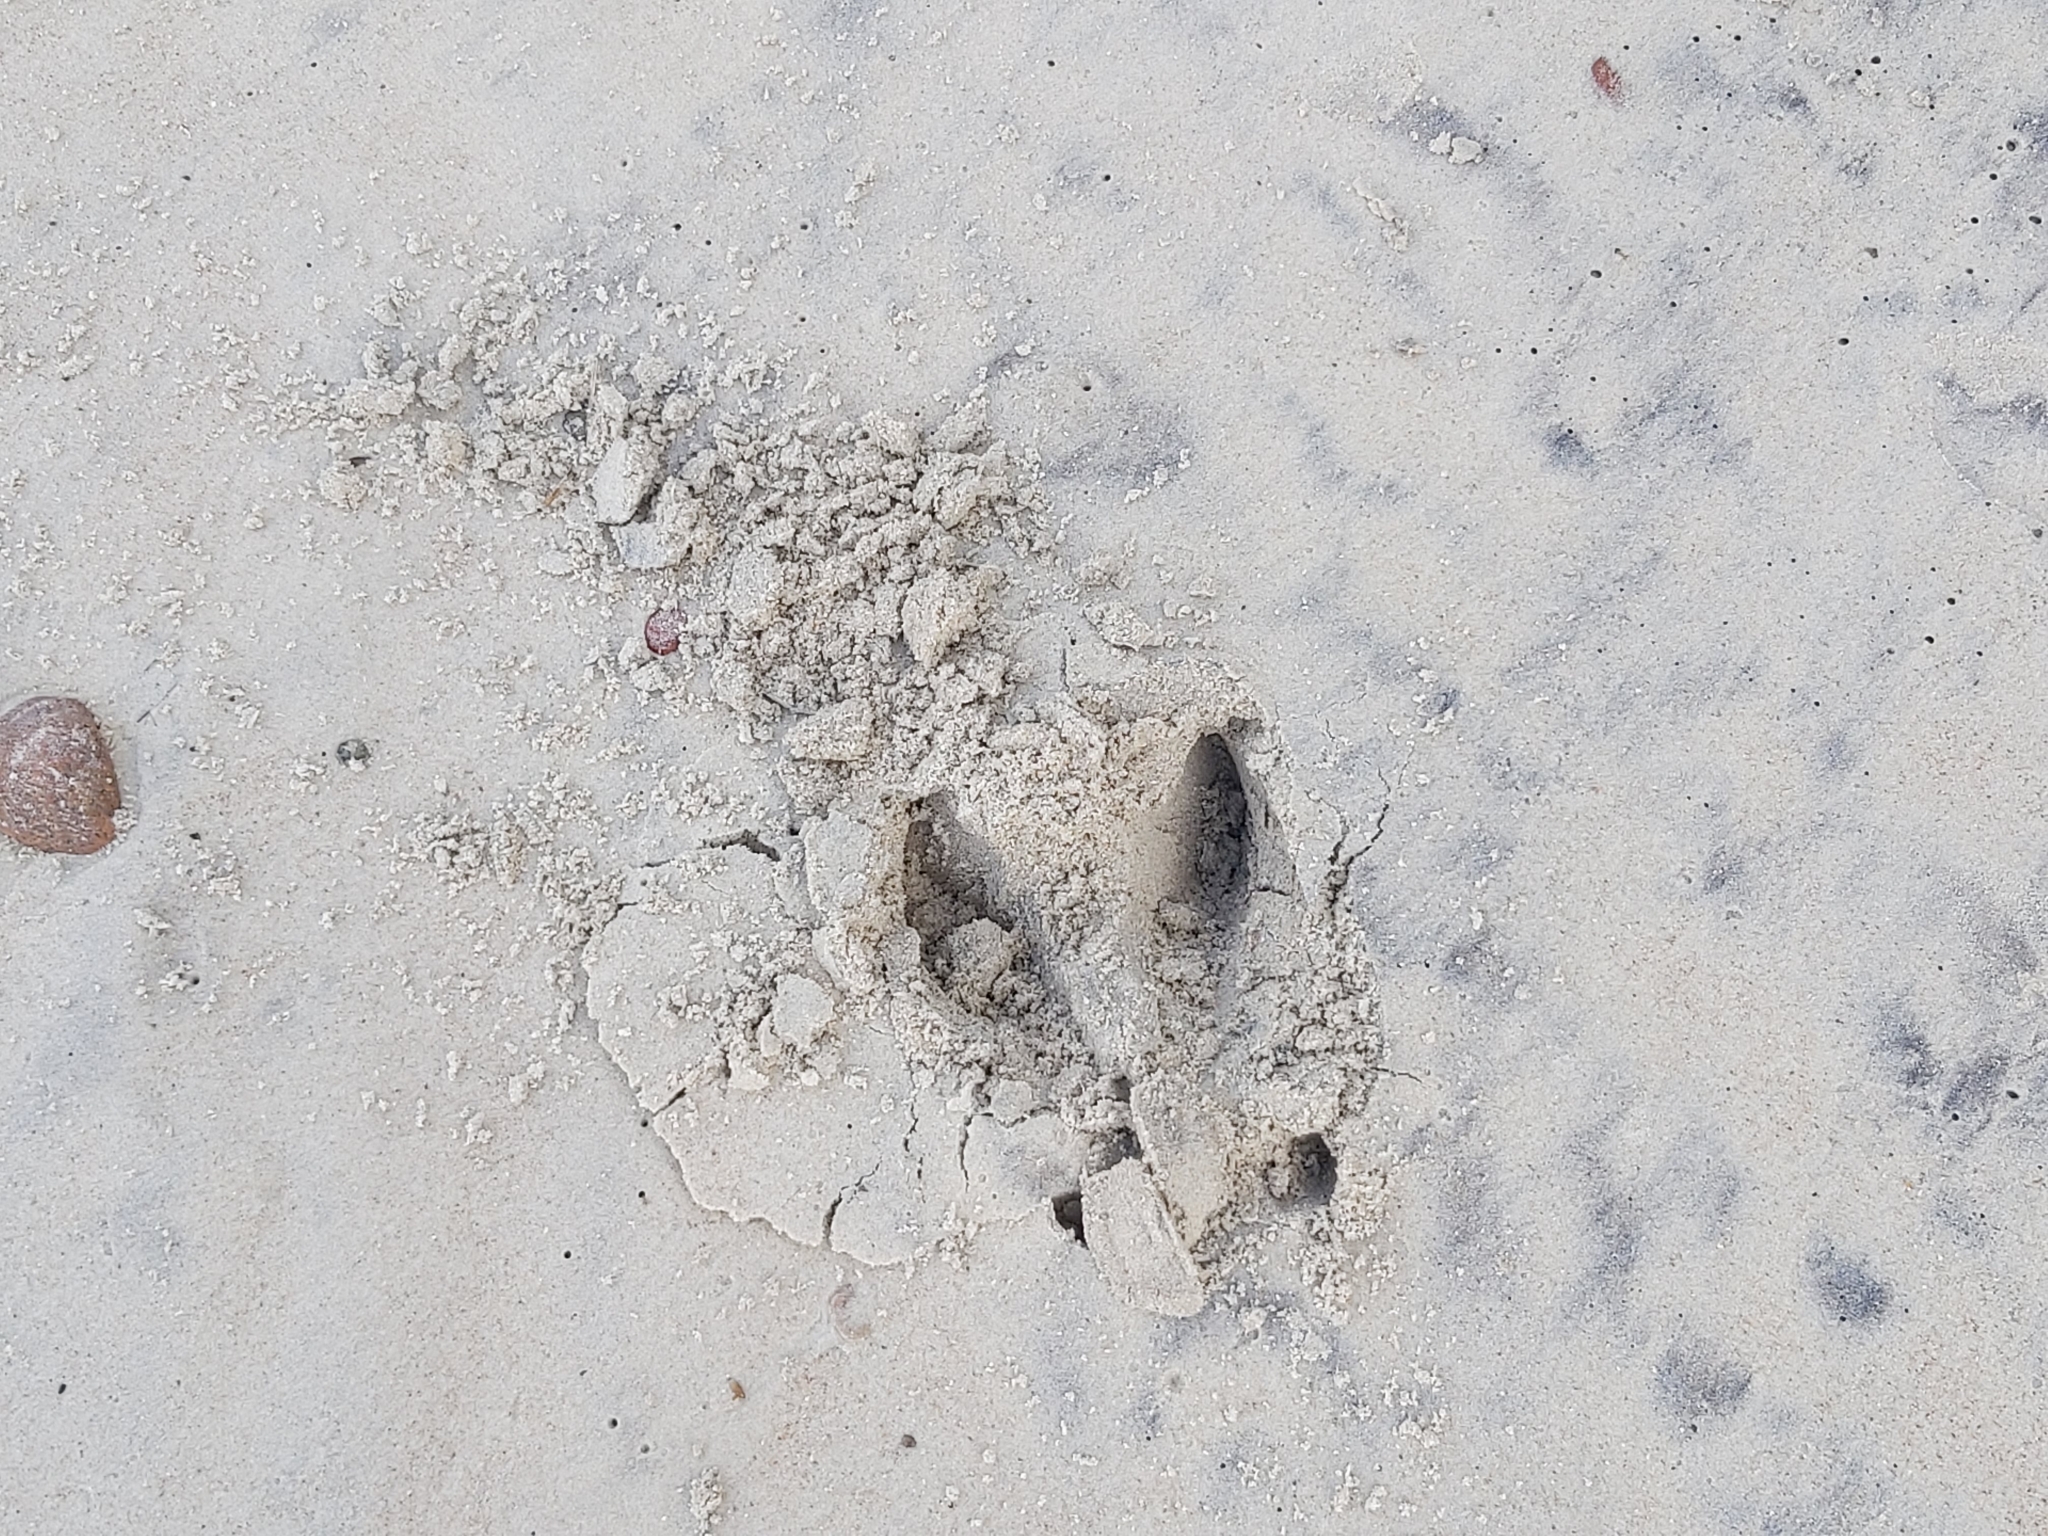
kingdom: Animalia
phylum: Chordata
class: Mammalia
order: Artiodactyla
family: Cervidae
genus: Alces
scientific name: Alces alces
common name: Moose
